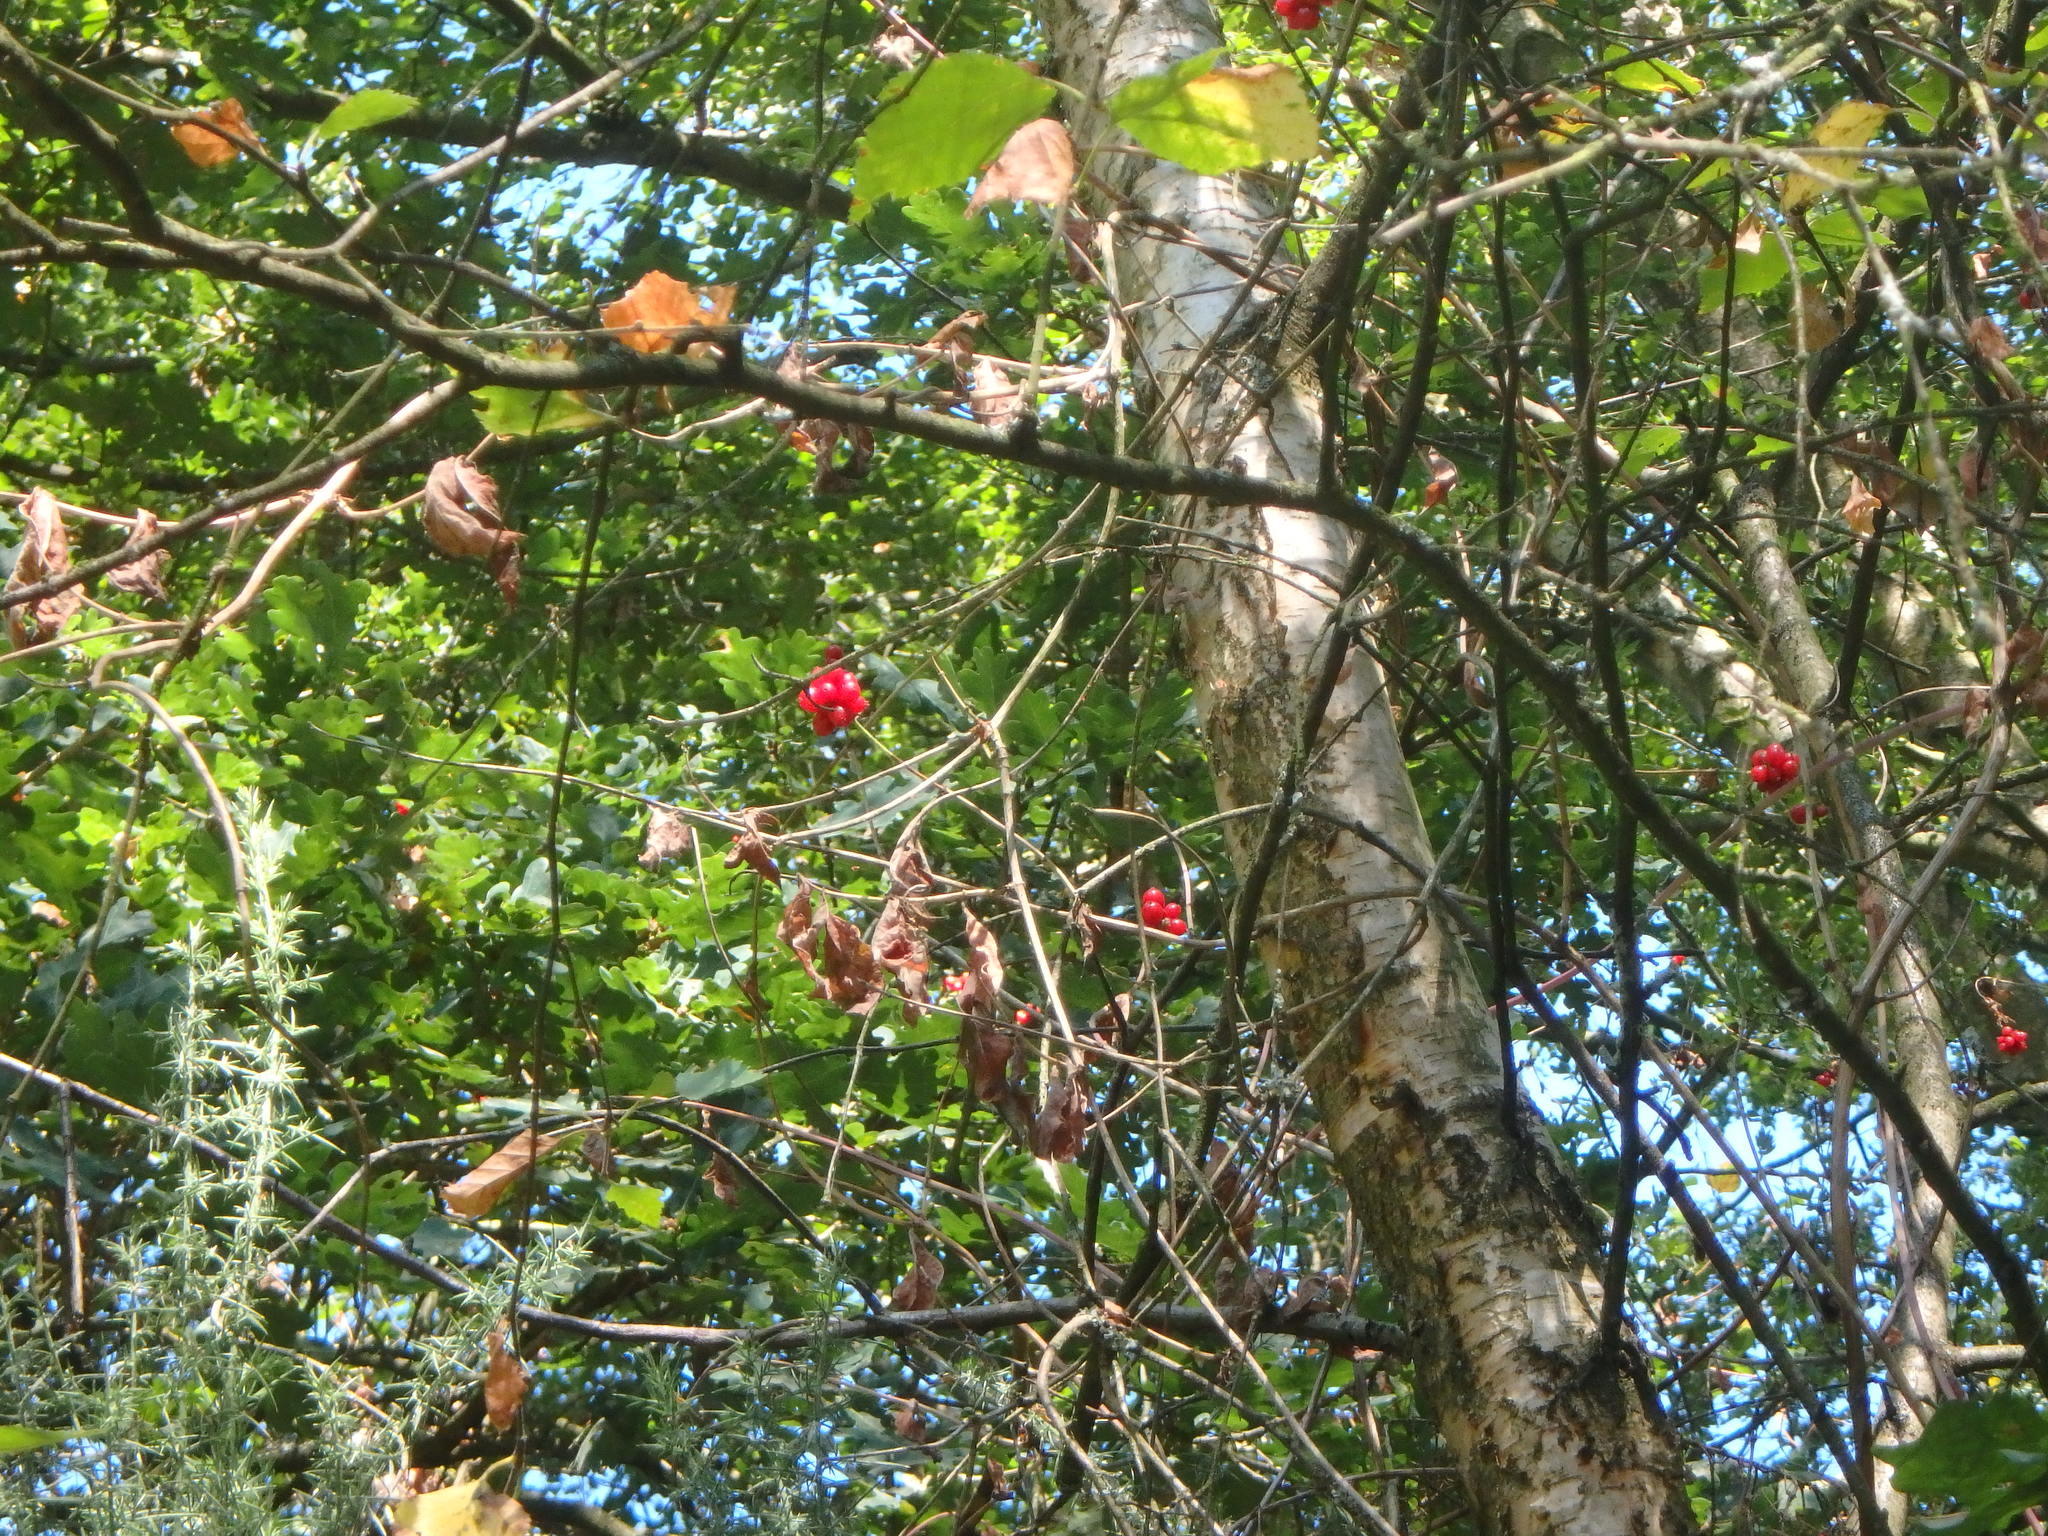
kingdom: Plantae
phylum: Tracheophyta
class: Magnoliopsida
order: Dipsacales
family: Caprifoliaceae
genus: Lonicera
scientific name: Lonicera periclymenum
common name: European honeysuckle
